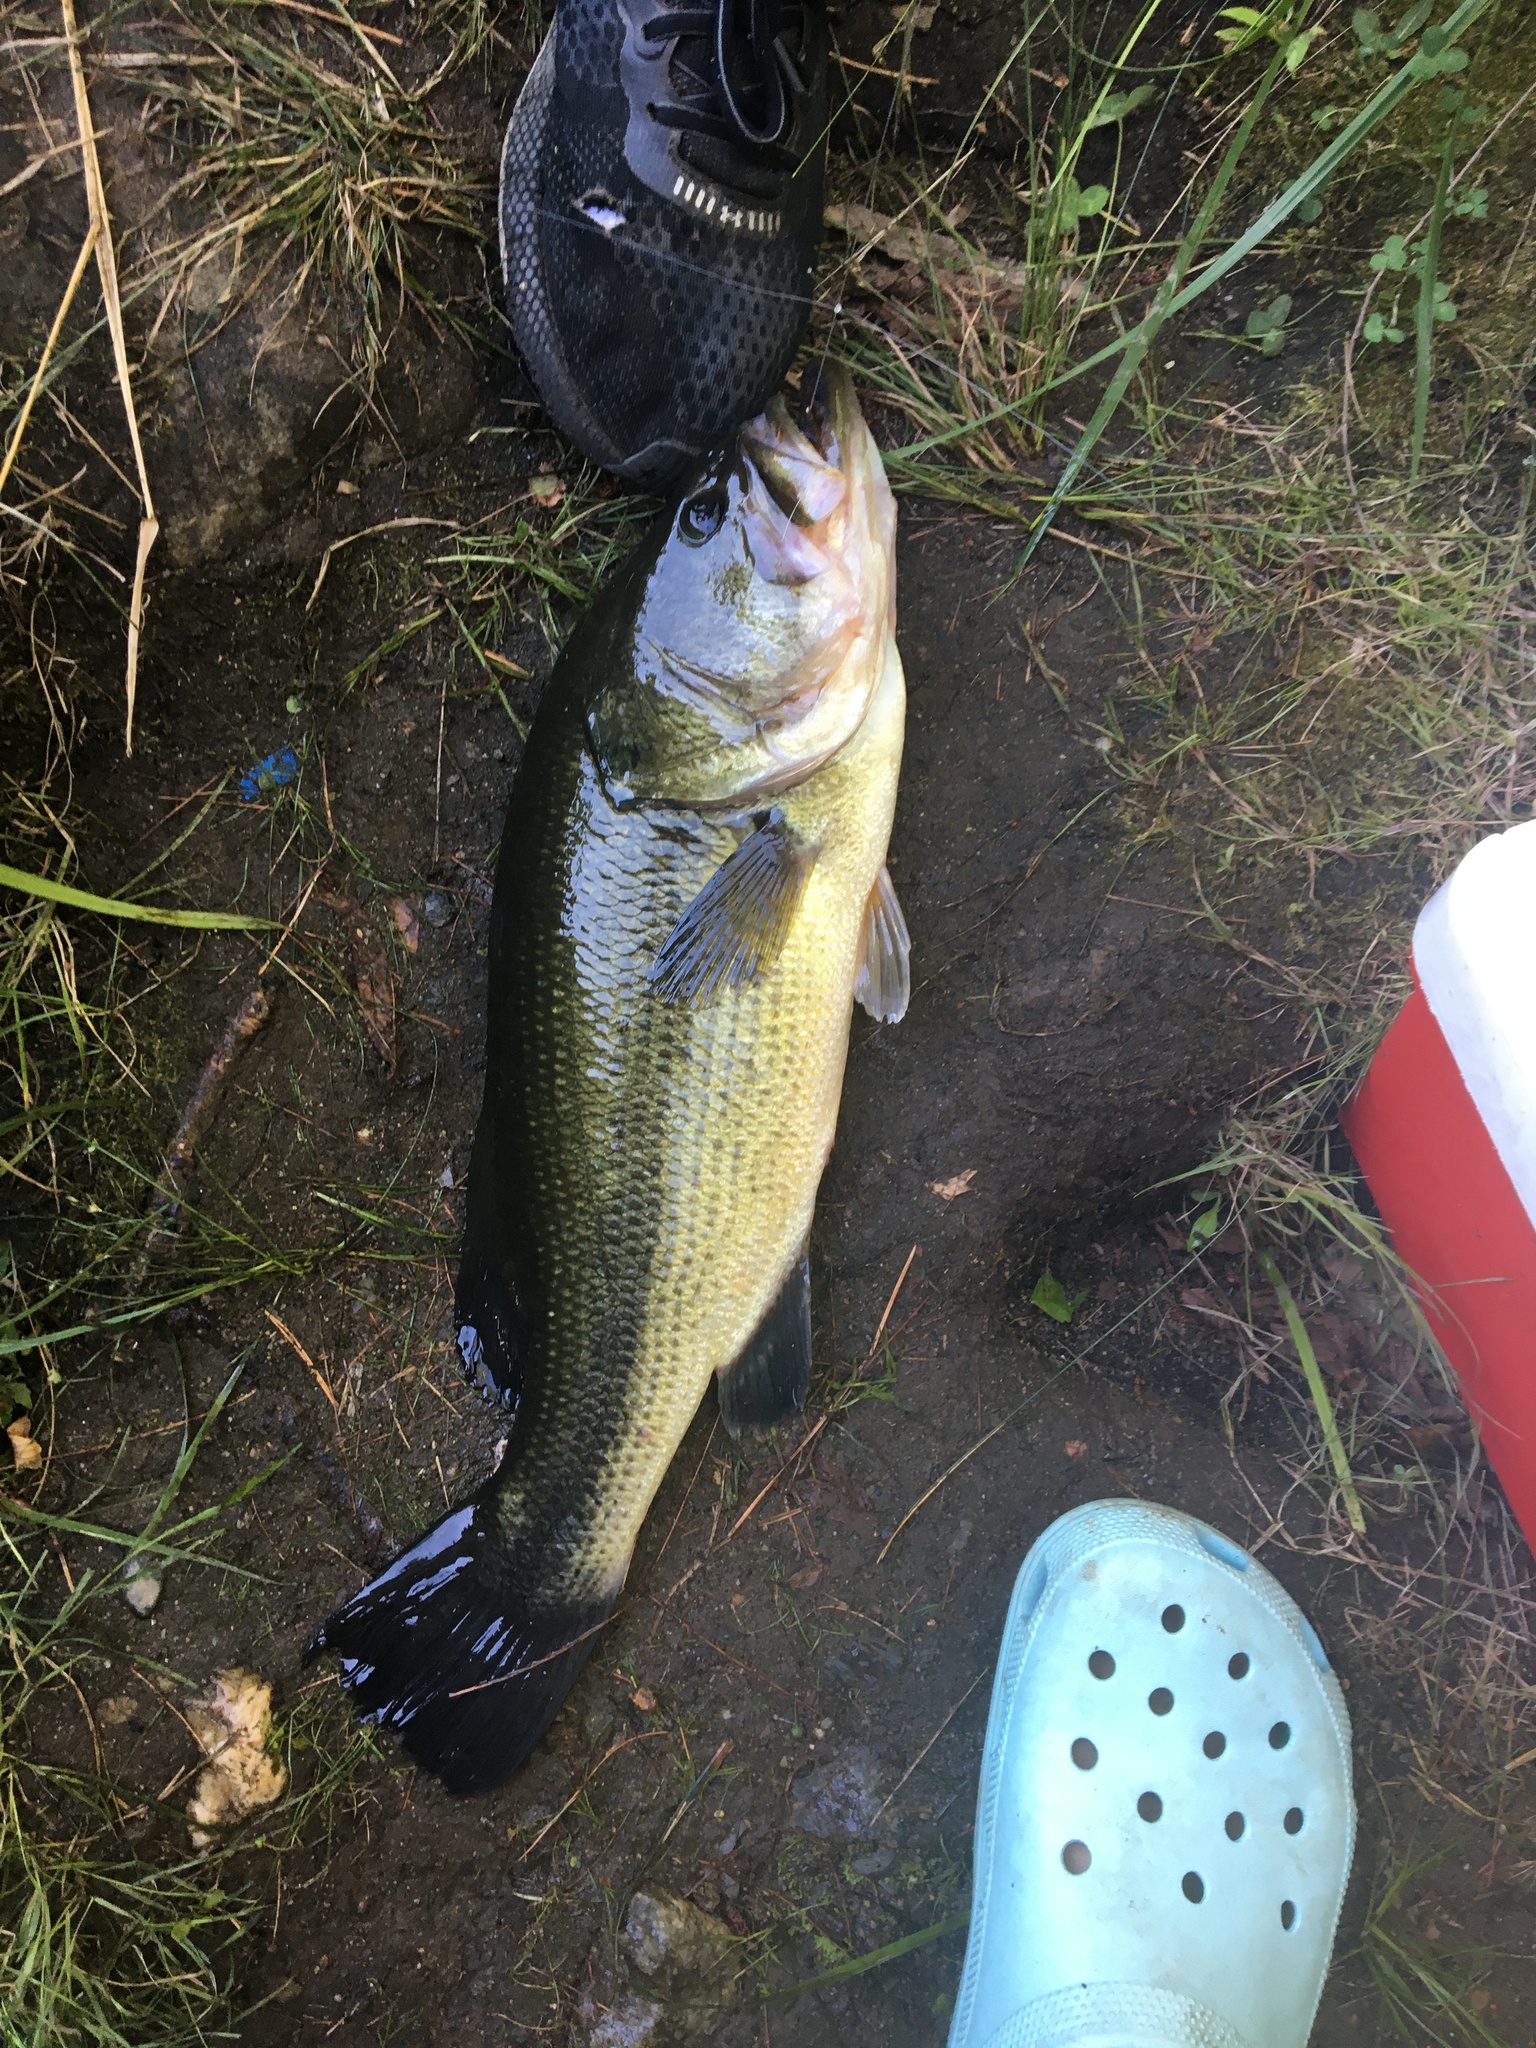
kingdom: Animalia
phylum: Chordata
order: Perciformes
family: Centrarchidae
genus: Micropterus
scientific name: Micropterus
